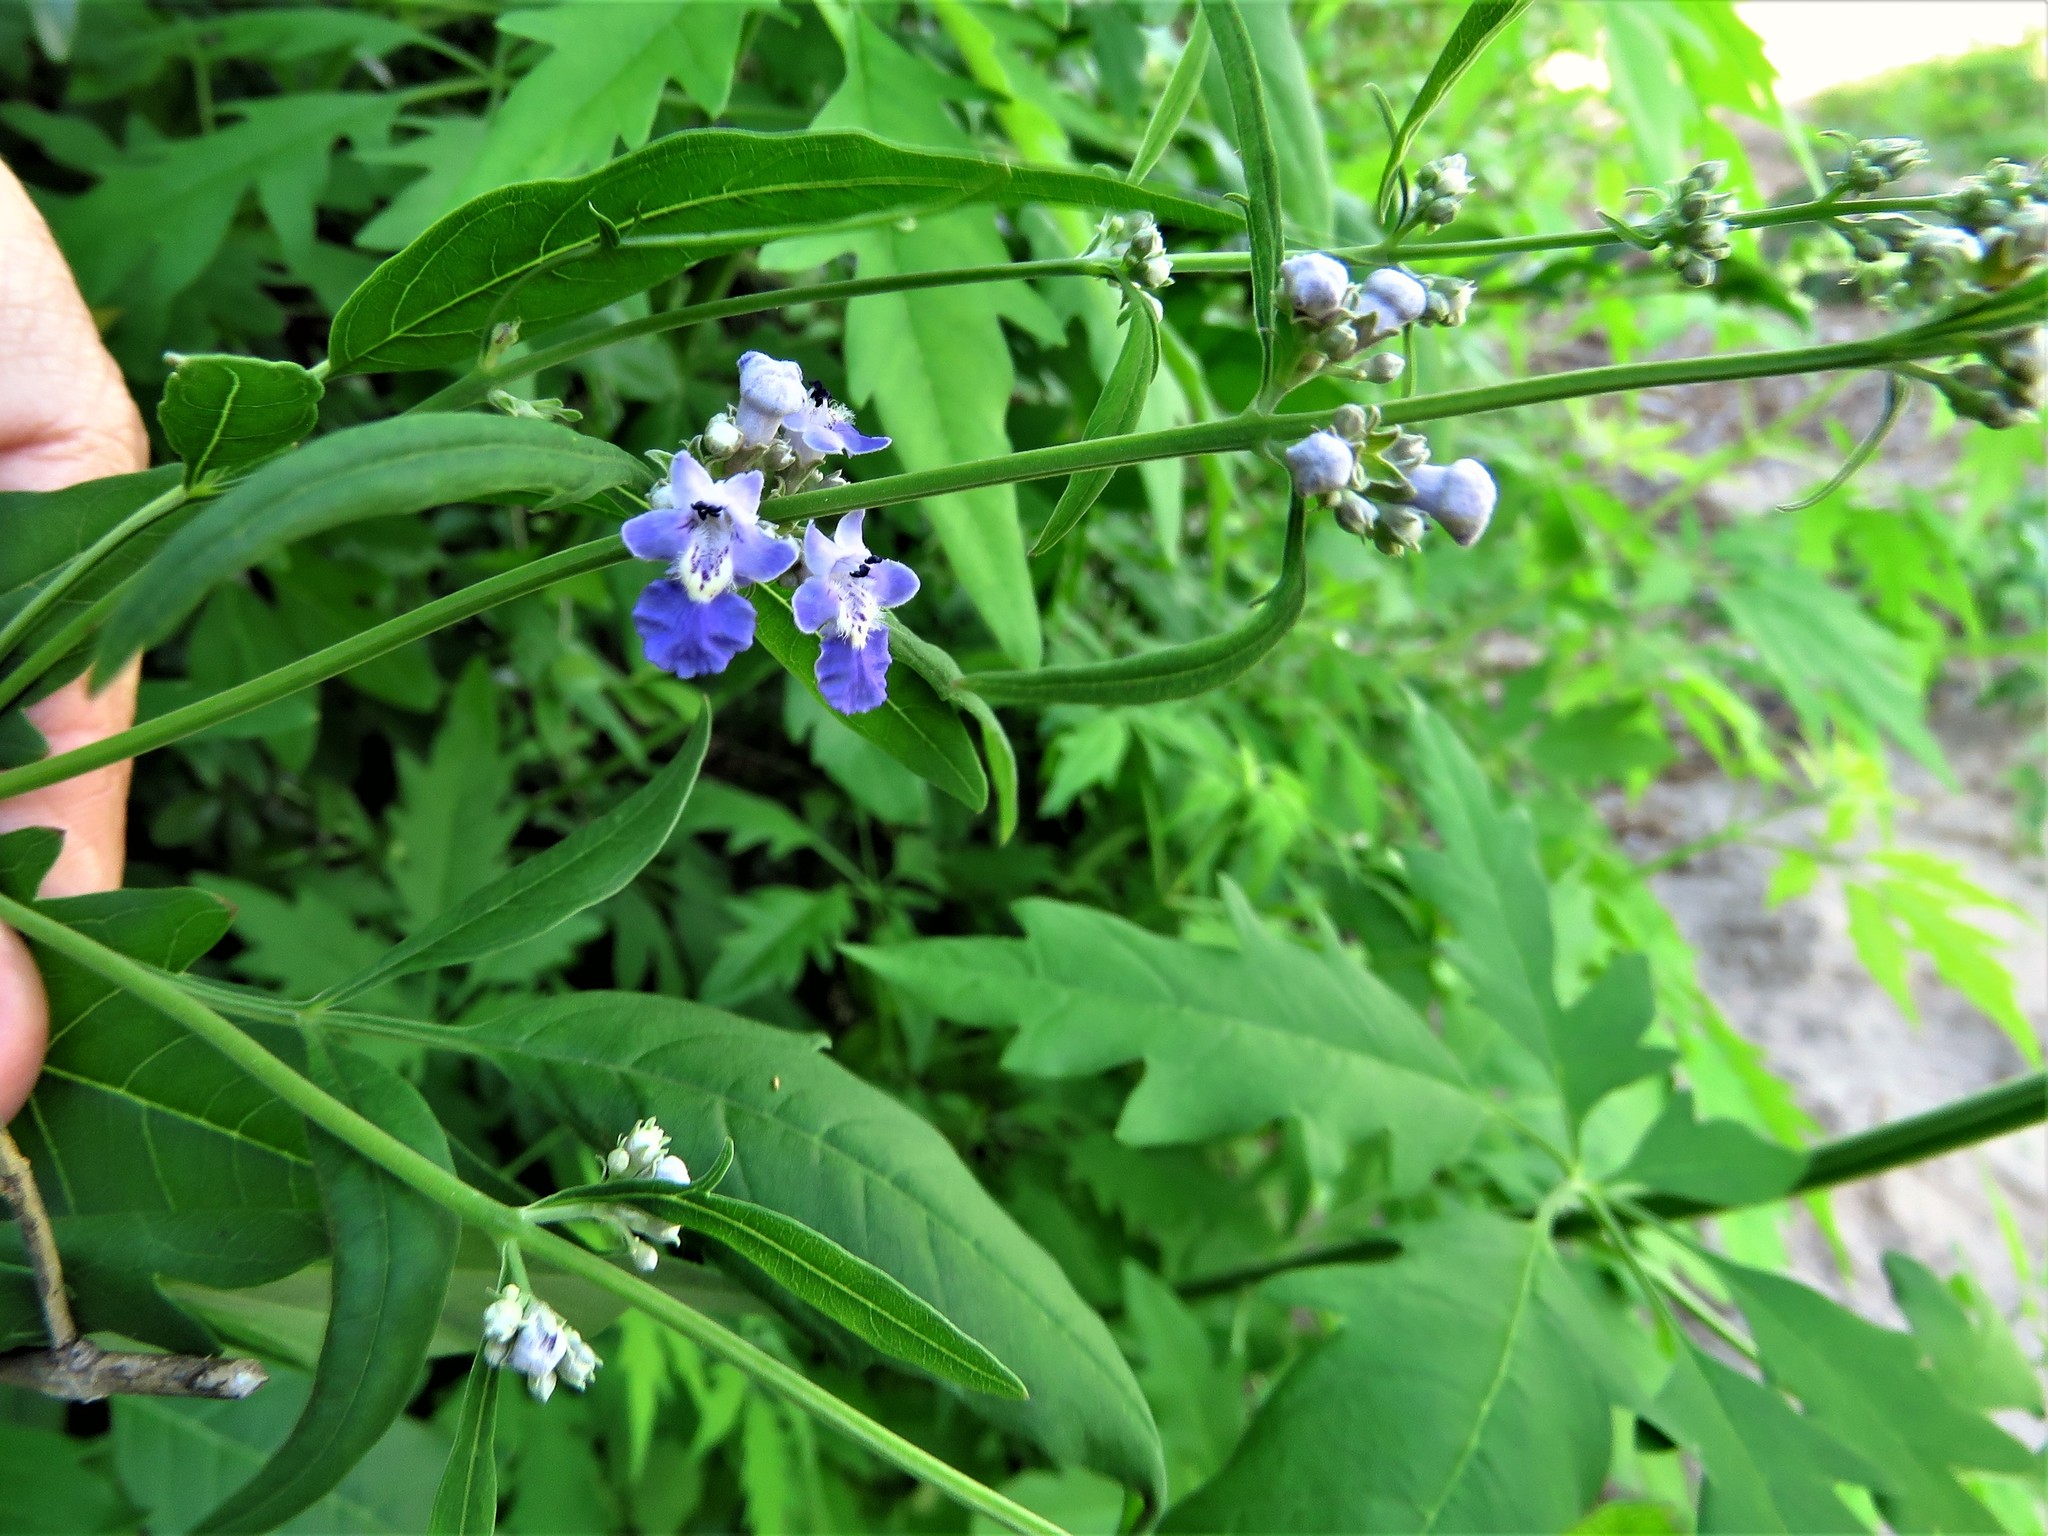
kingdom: Plantae
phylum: Tracheophyta
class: Magnoliopsida
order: Lamiales
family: Lamiaceae
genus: Vitex
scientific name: Vitex negundo
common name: Chinese chastetree
